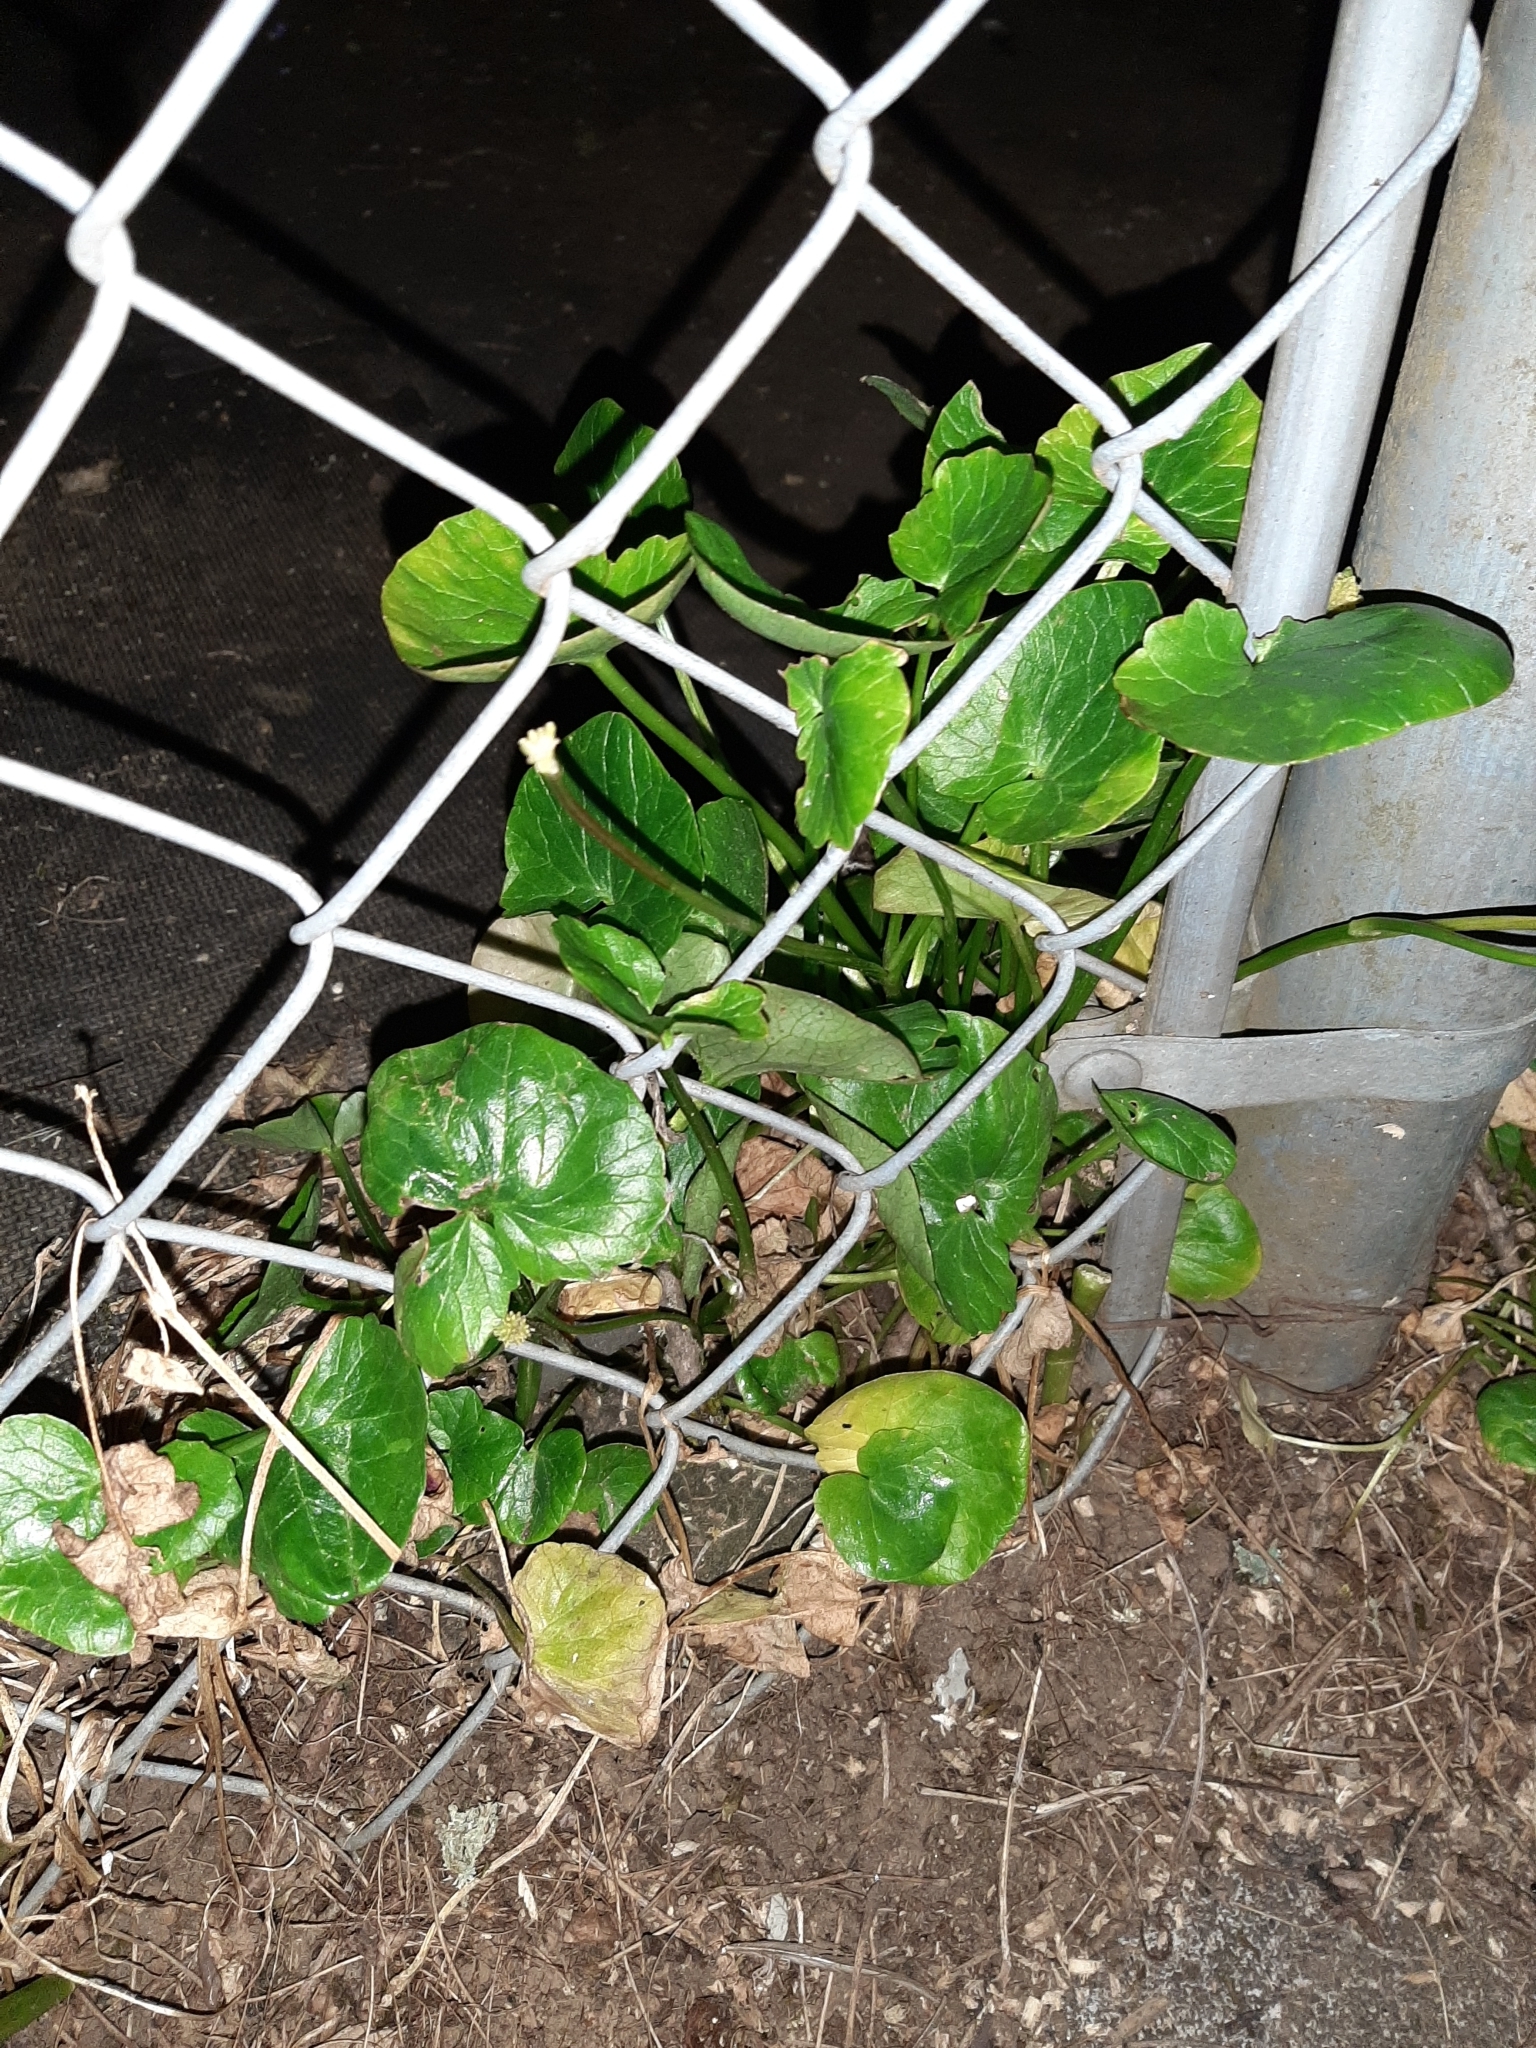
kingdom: Plantae
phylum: Tracheophyta
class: Magnoliopsida
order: Ranunculales
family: Ranunculaceae
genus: Ficaria
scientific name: Ficaria verna
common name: Lesser celandine
